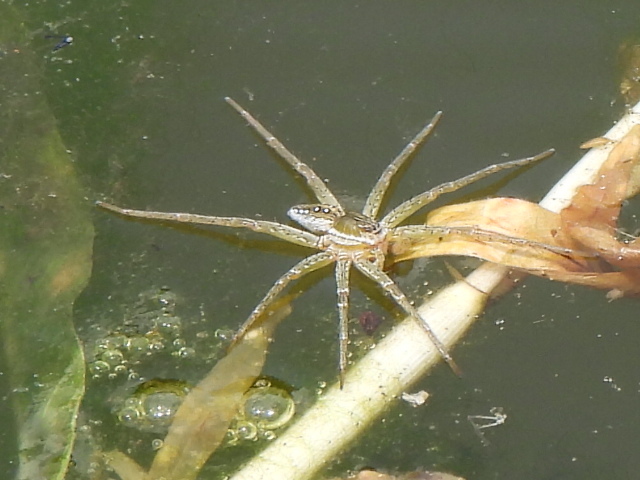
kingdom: Animalia
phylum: Arthropoda
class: Arachnida
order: Araneae
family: Pisauridae
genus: Dolomedes
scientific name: Dolomedes triton
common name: Six-spotted fishing spider
